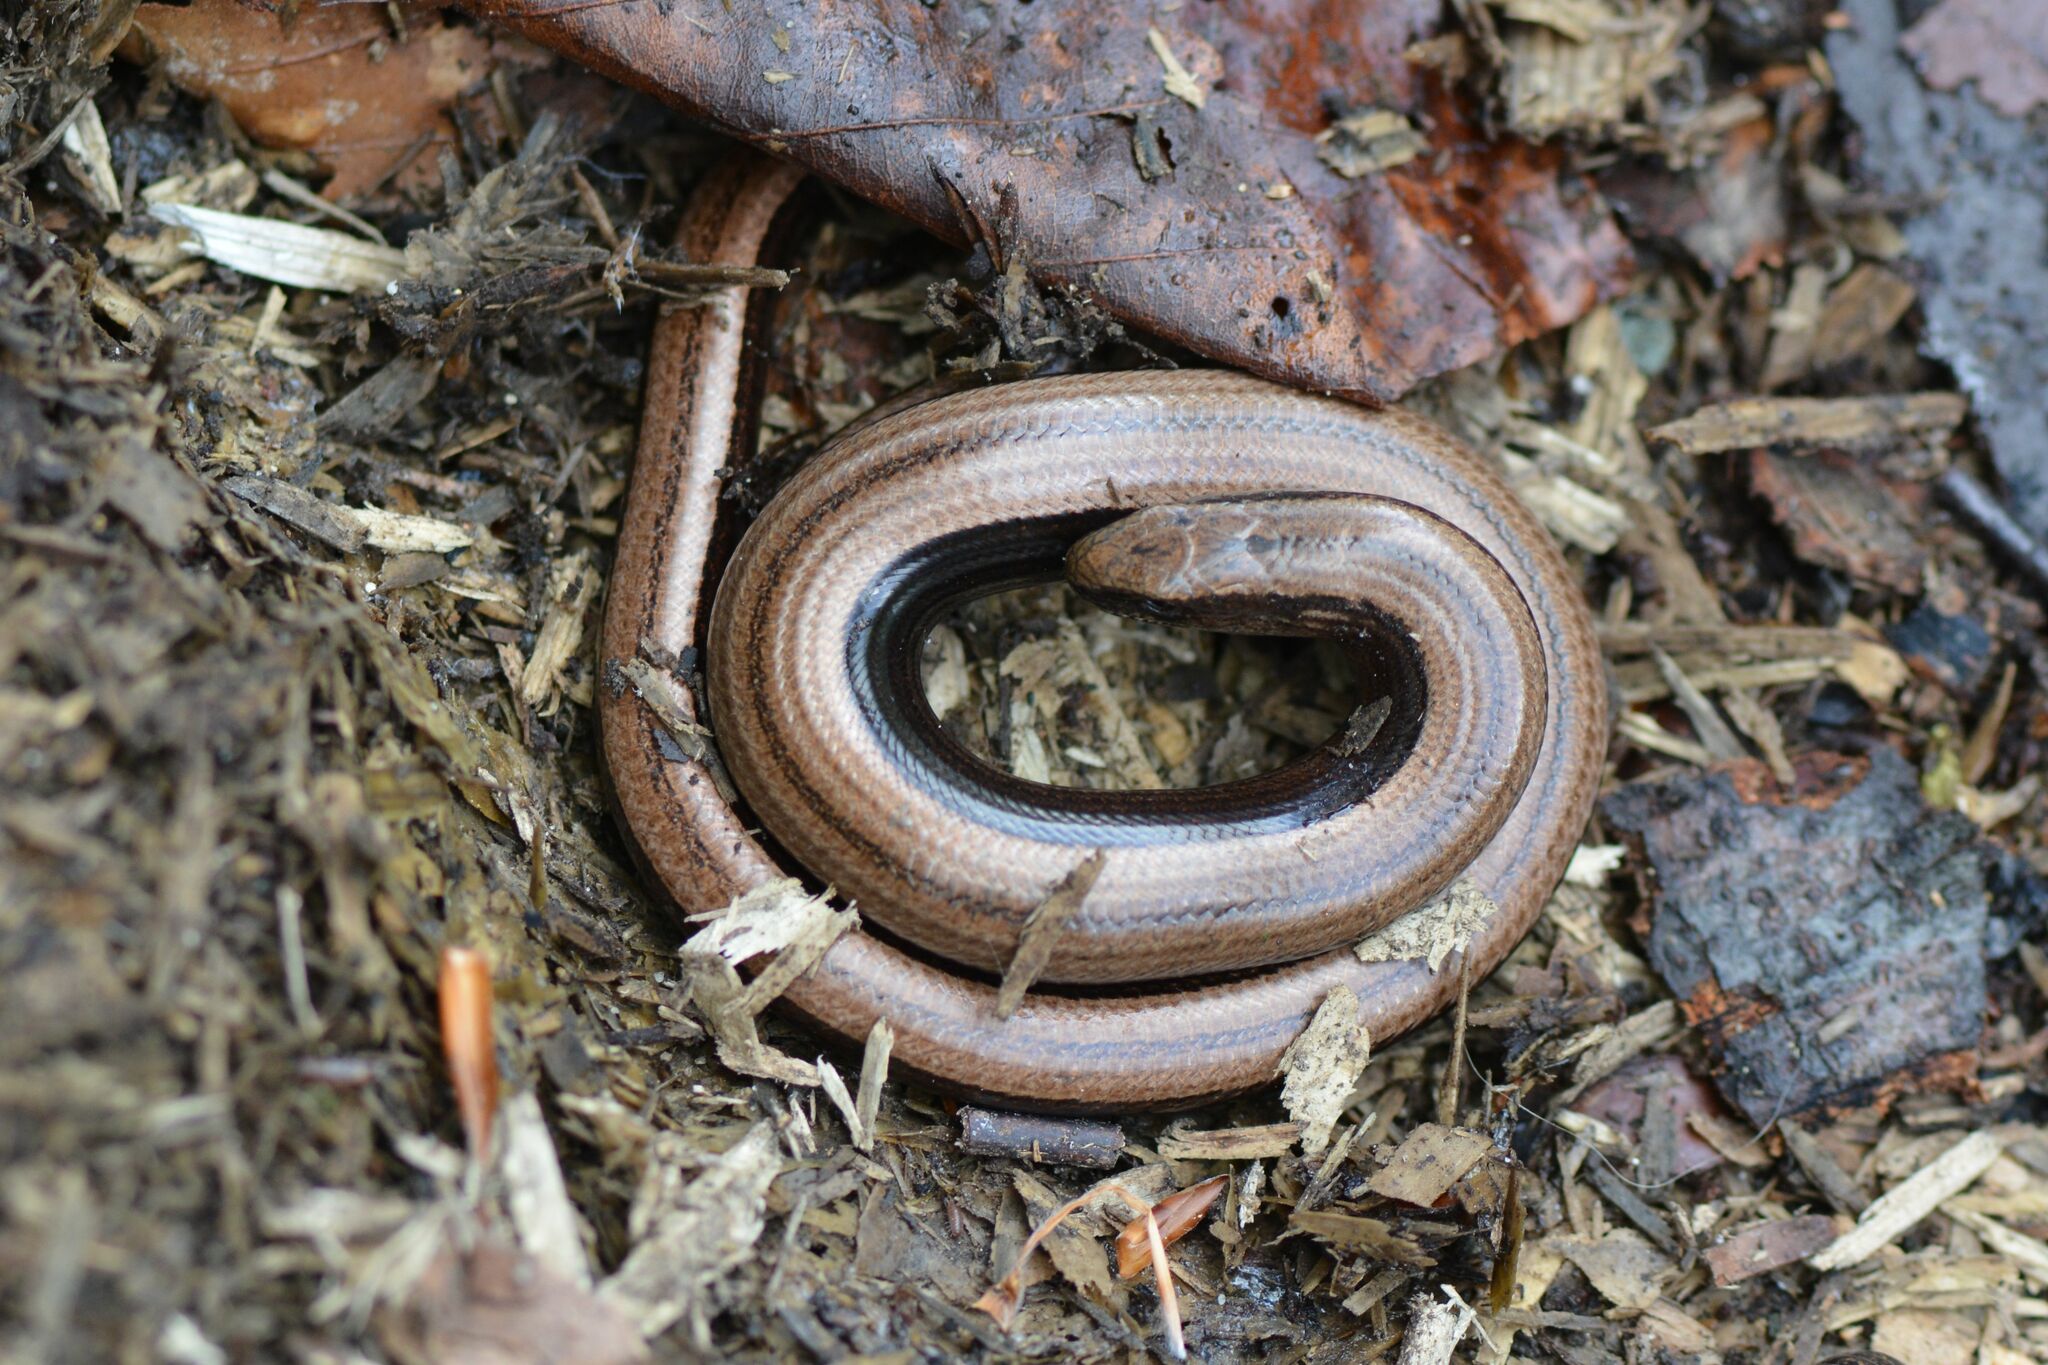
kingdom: Animalia
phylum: Chordata
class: Squamata
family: Anguidae
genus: Anguis
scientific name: Anguis fragilis
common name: Slow worm
